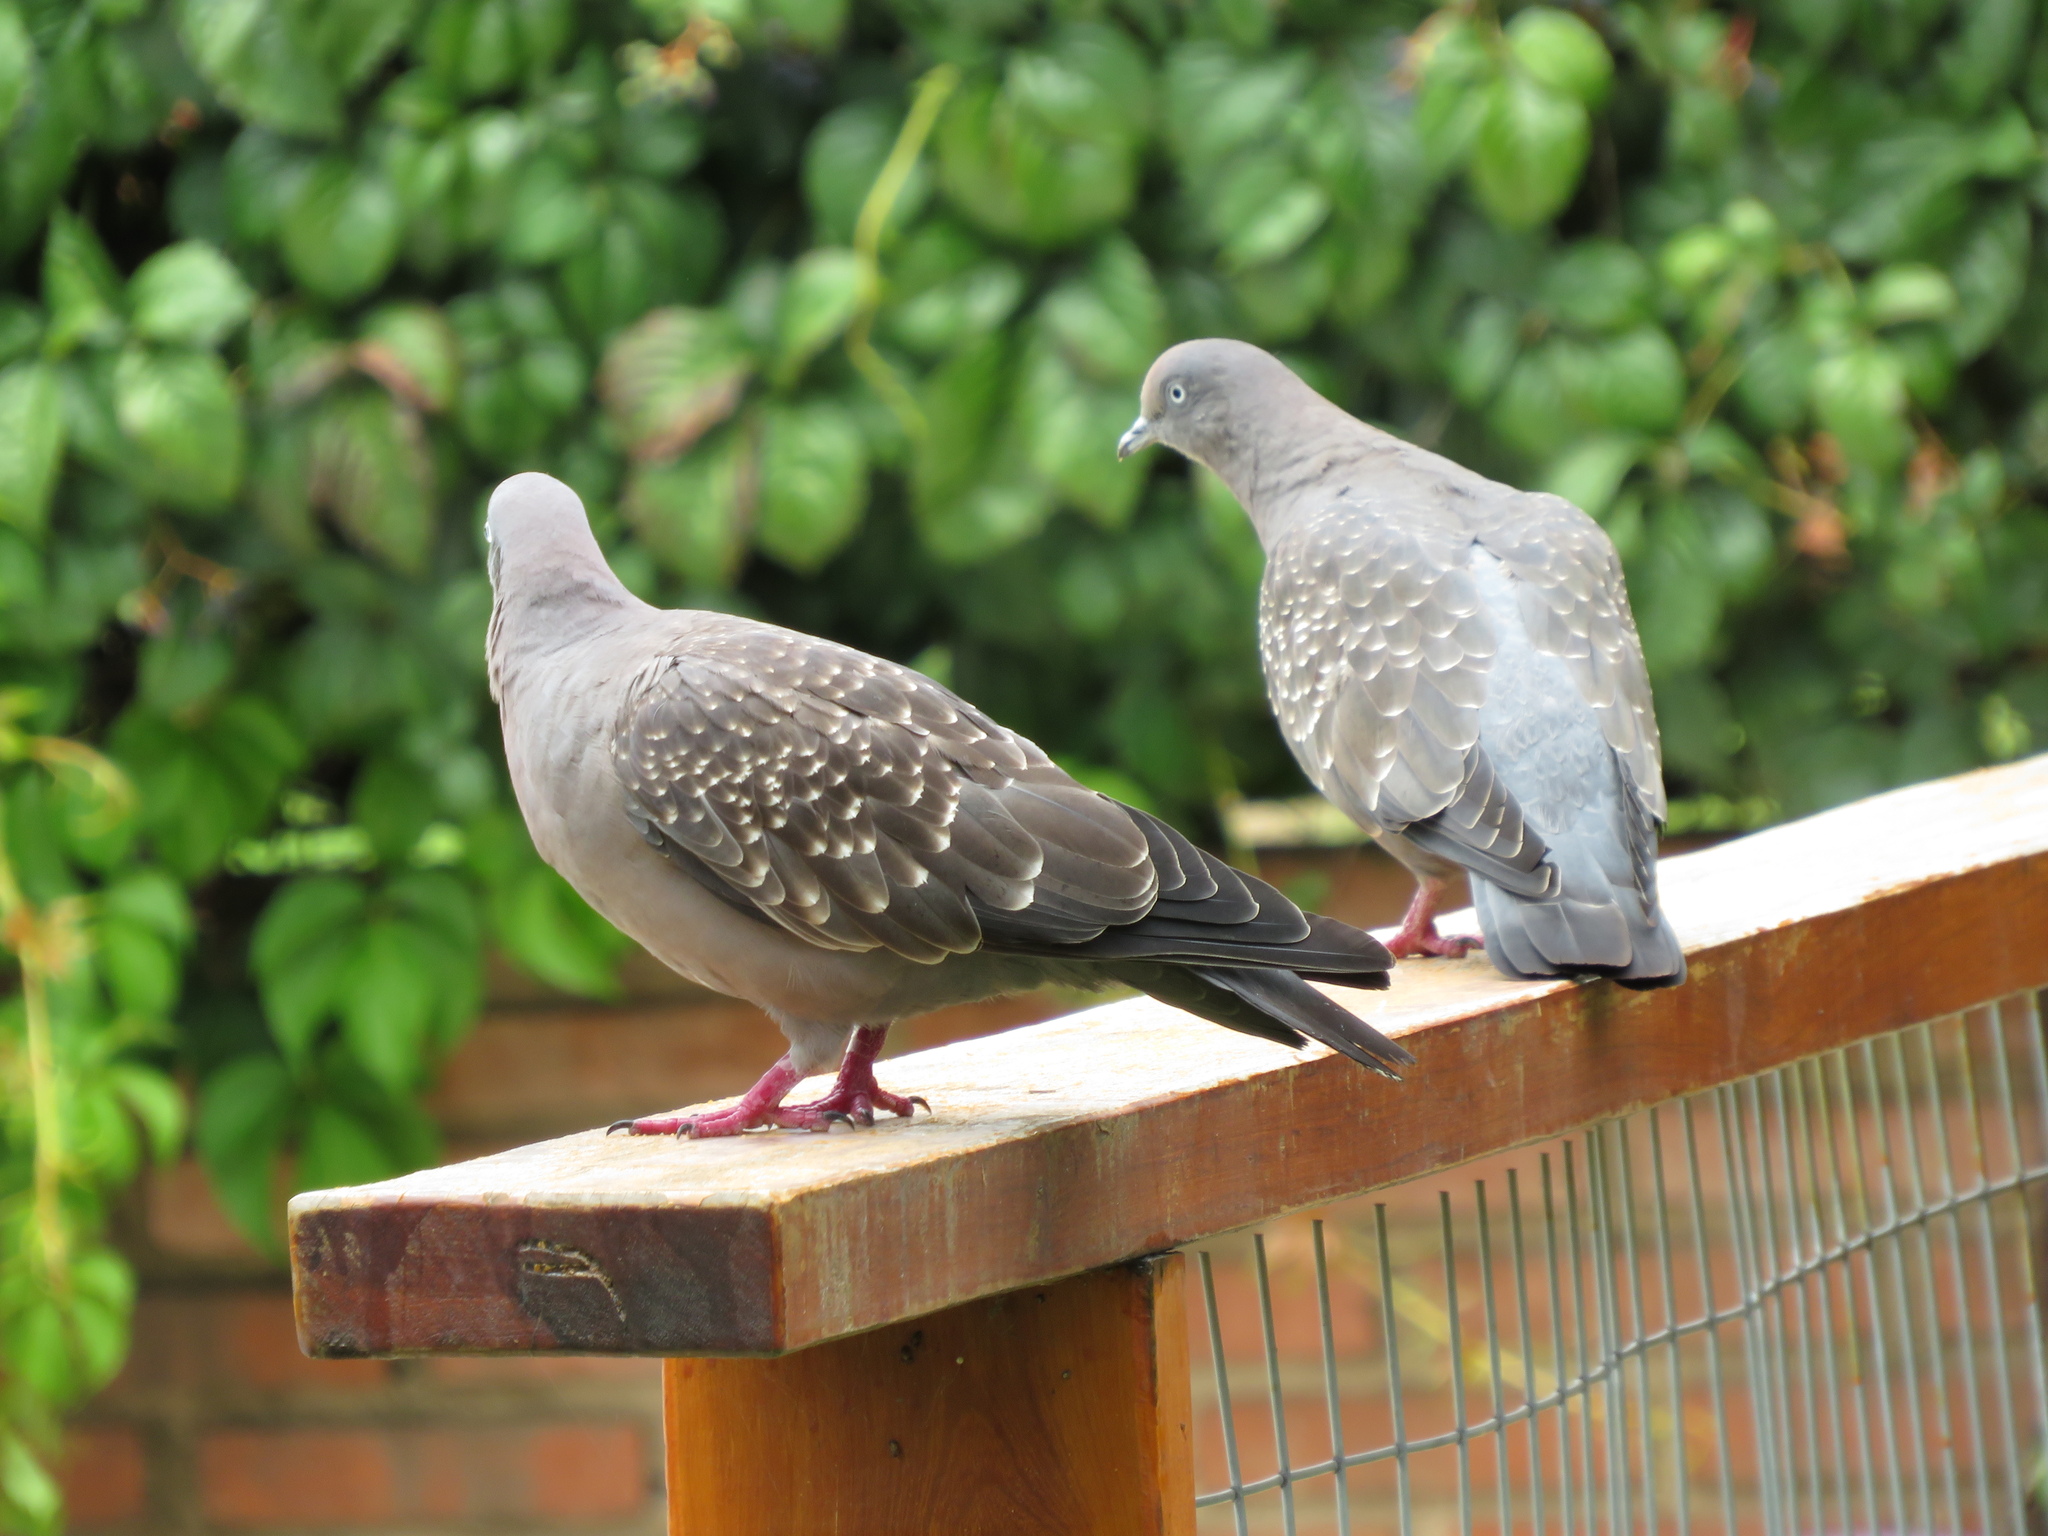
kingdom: Animalia
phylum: Chordata
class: Aves
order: Columbiformes
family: Columbidae
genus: Patagioenas
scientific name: Patagioenas maculosa
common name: Spot-winged pigeon
